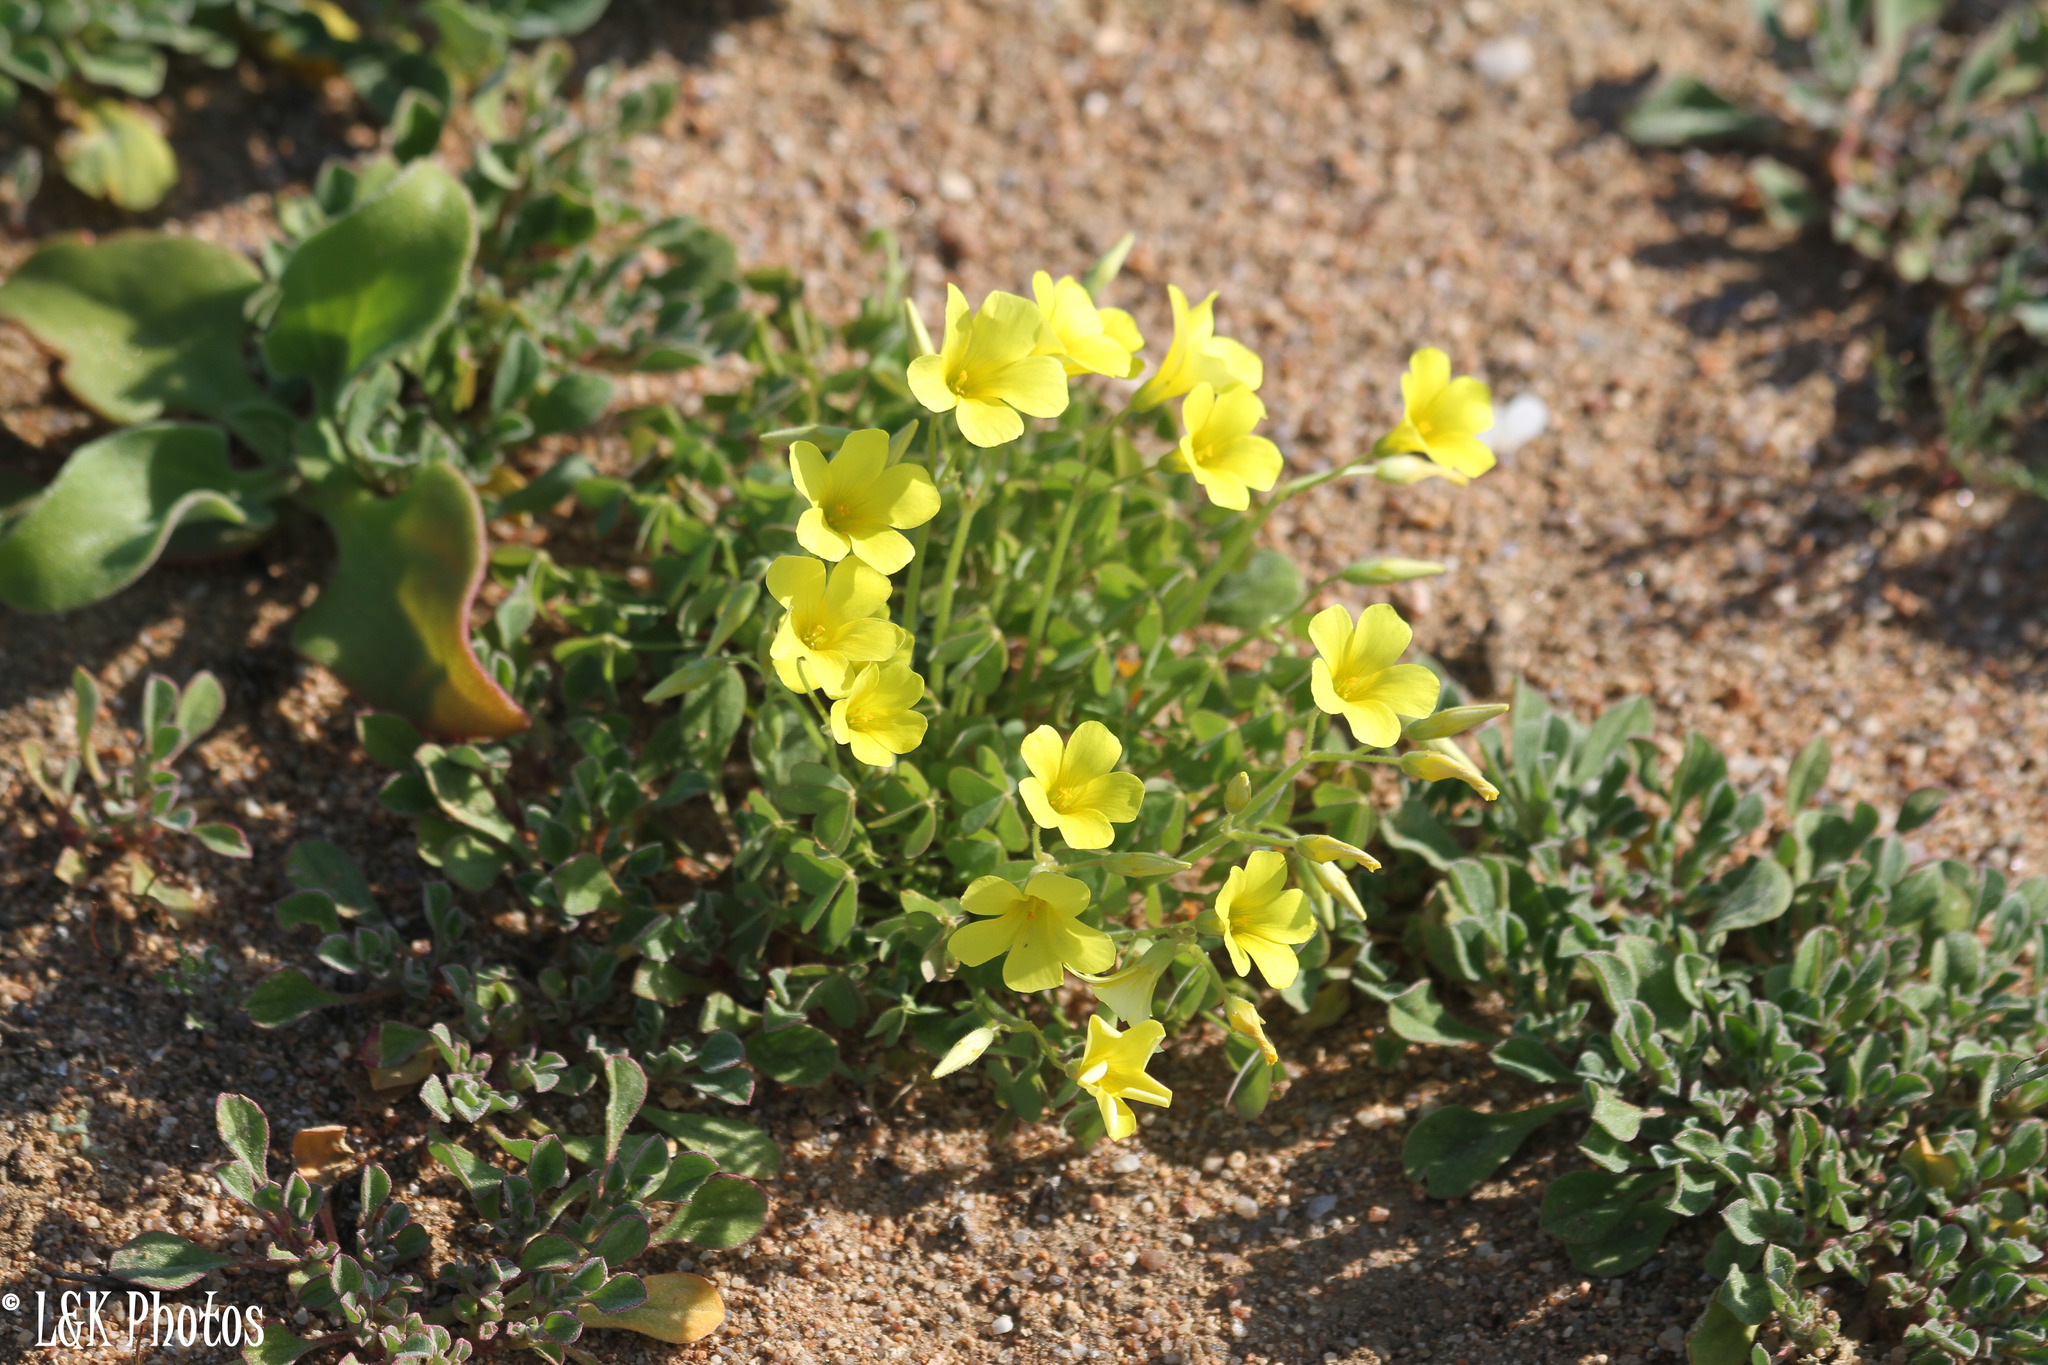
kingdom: Plantae
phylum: Tracheophyta
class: Magnoliopsida
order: Oxalidales
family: Oxalidaceae
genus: Oxalis
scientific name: Oxalis copiosa
